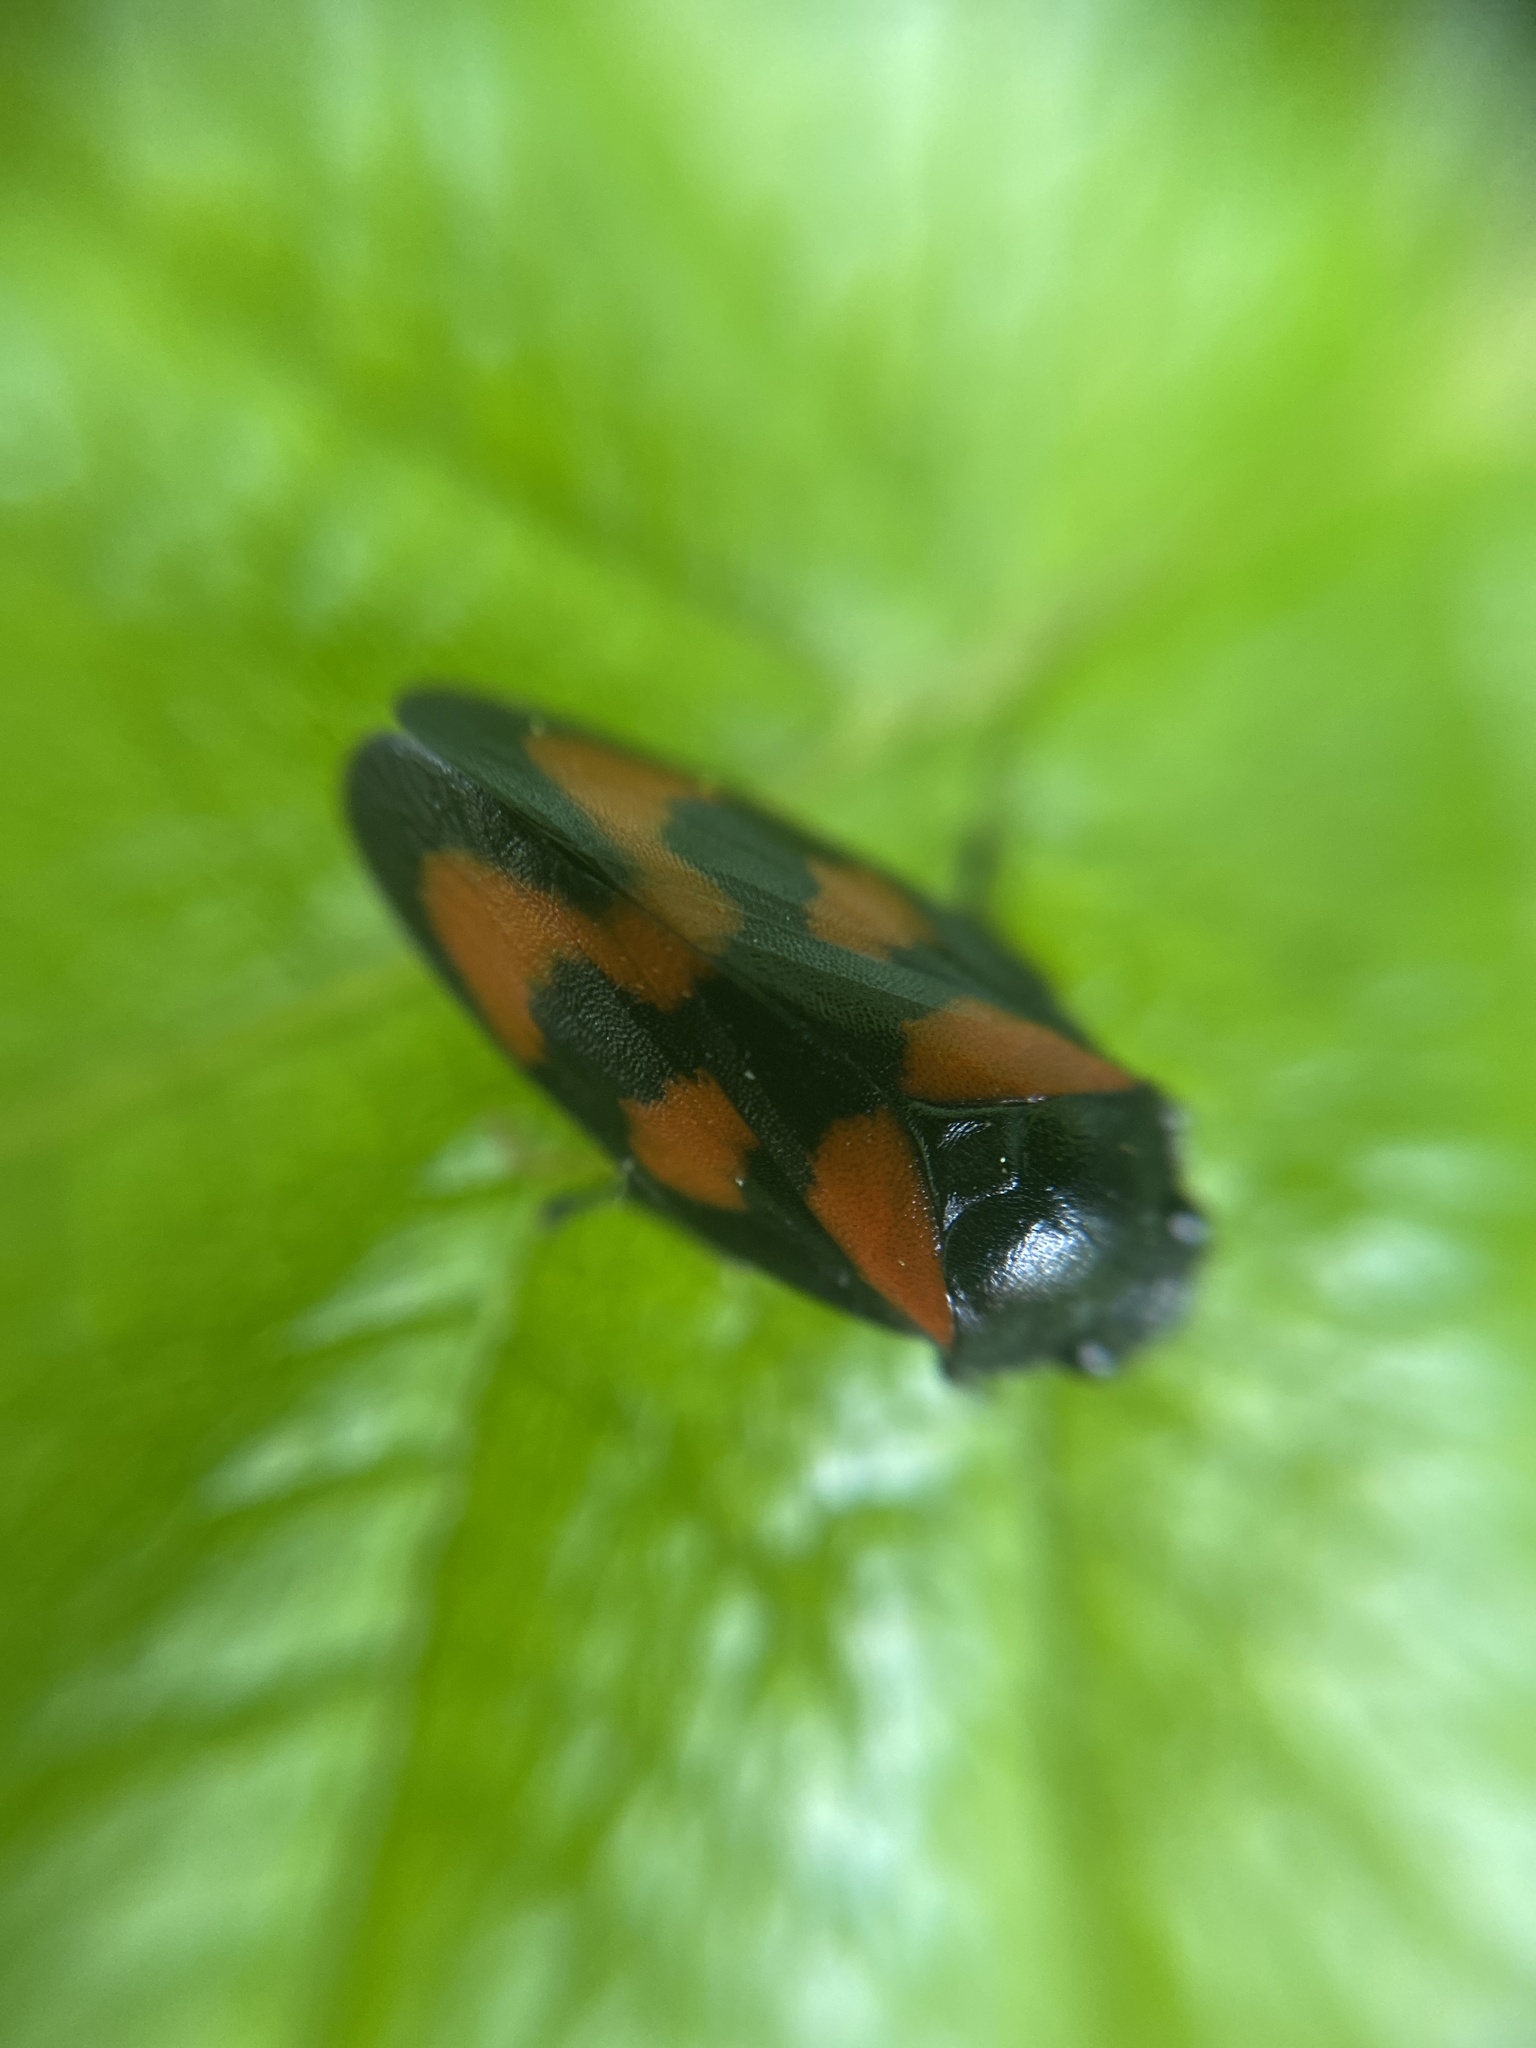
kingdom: Animalia
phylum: Arthropoda
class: Insecta
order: Hemiptera
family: Cercopidae
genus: Cercopis
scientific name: Cercopis vulnerata
